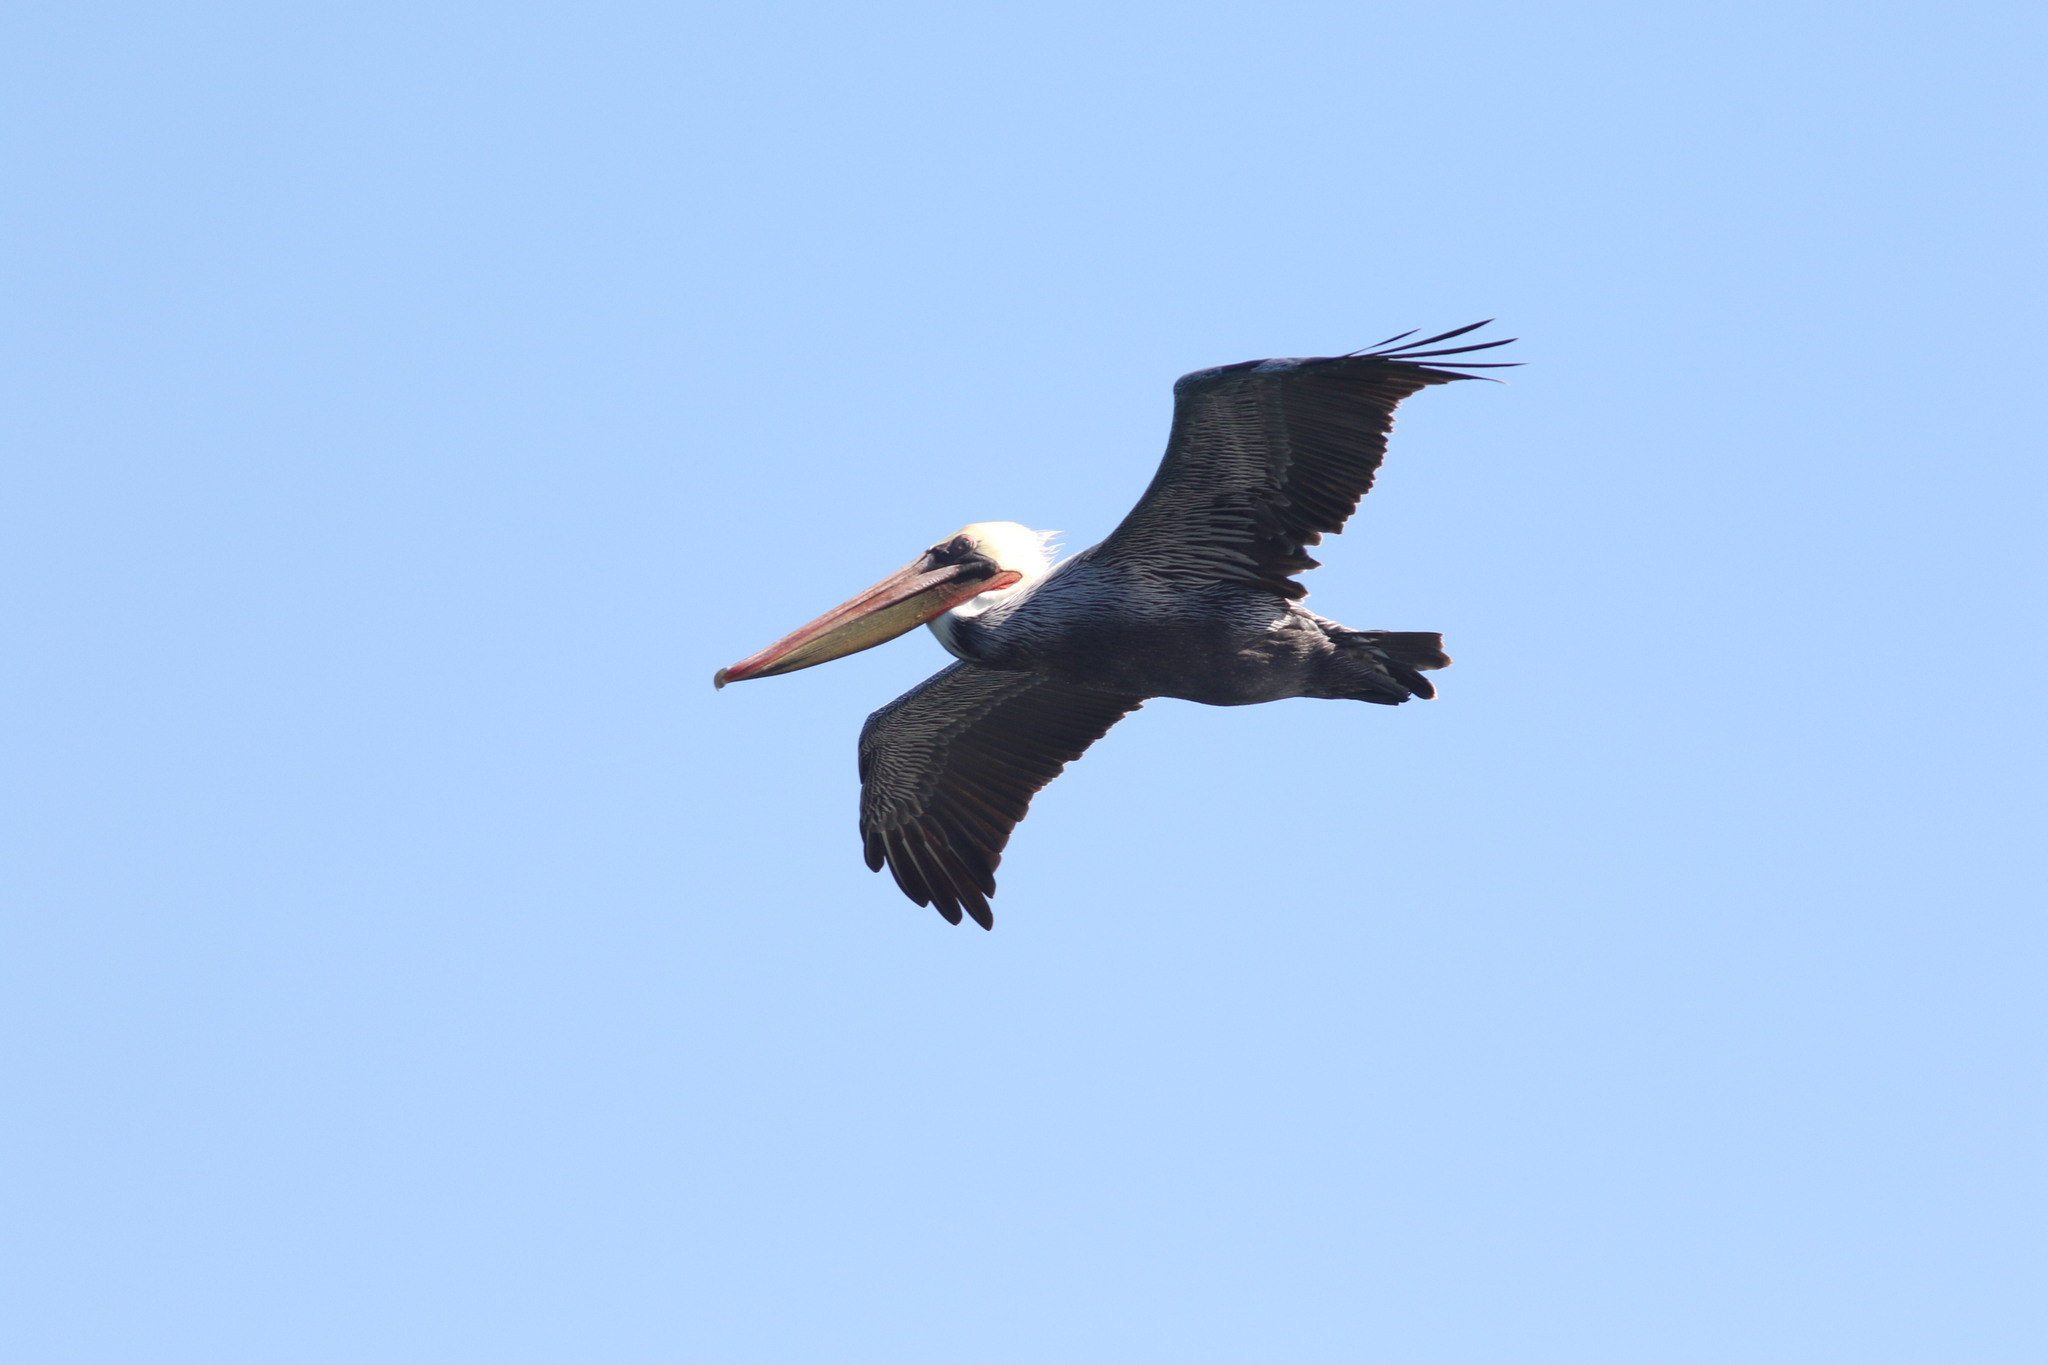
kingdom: Animalia
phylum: Chordata
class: Aves
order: Pelecaniformes
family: Pelecanidae
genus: Pelecanus
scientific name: Pelecanus occidentalis
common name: Brown pelican
